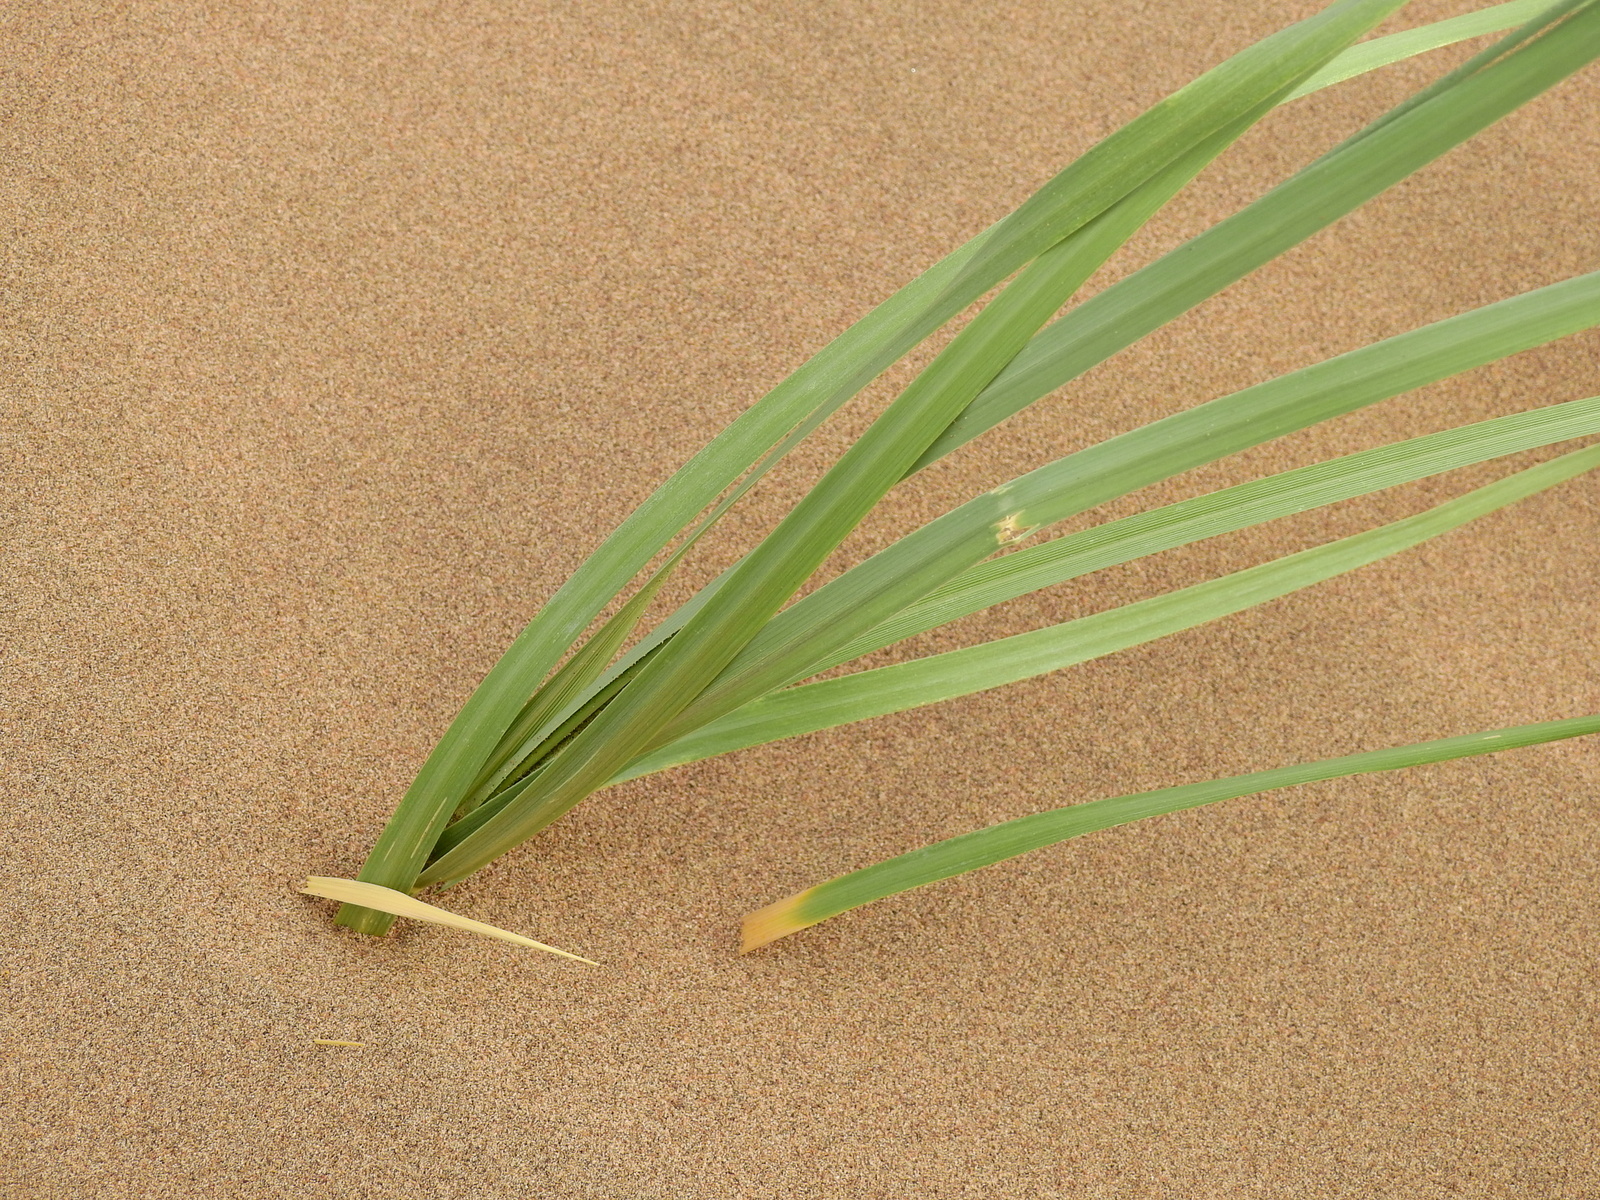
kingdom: Plantae
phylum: Tracheophyta
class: Liliopsida
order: Poales
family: Poaceae
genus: Panicum
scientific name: Panicum urvilleanum
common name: Silky panic grass
